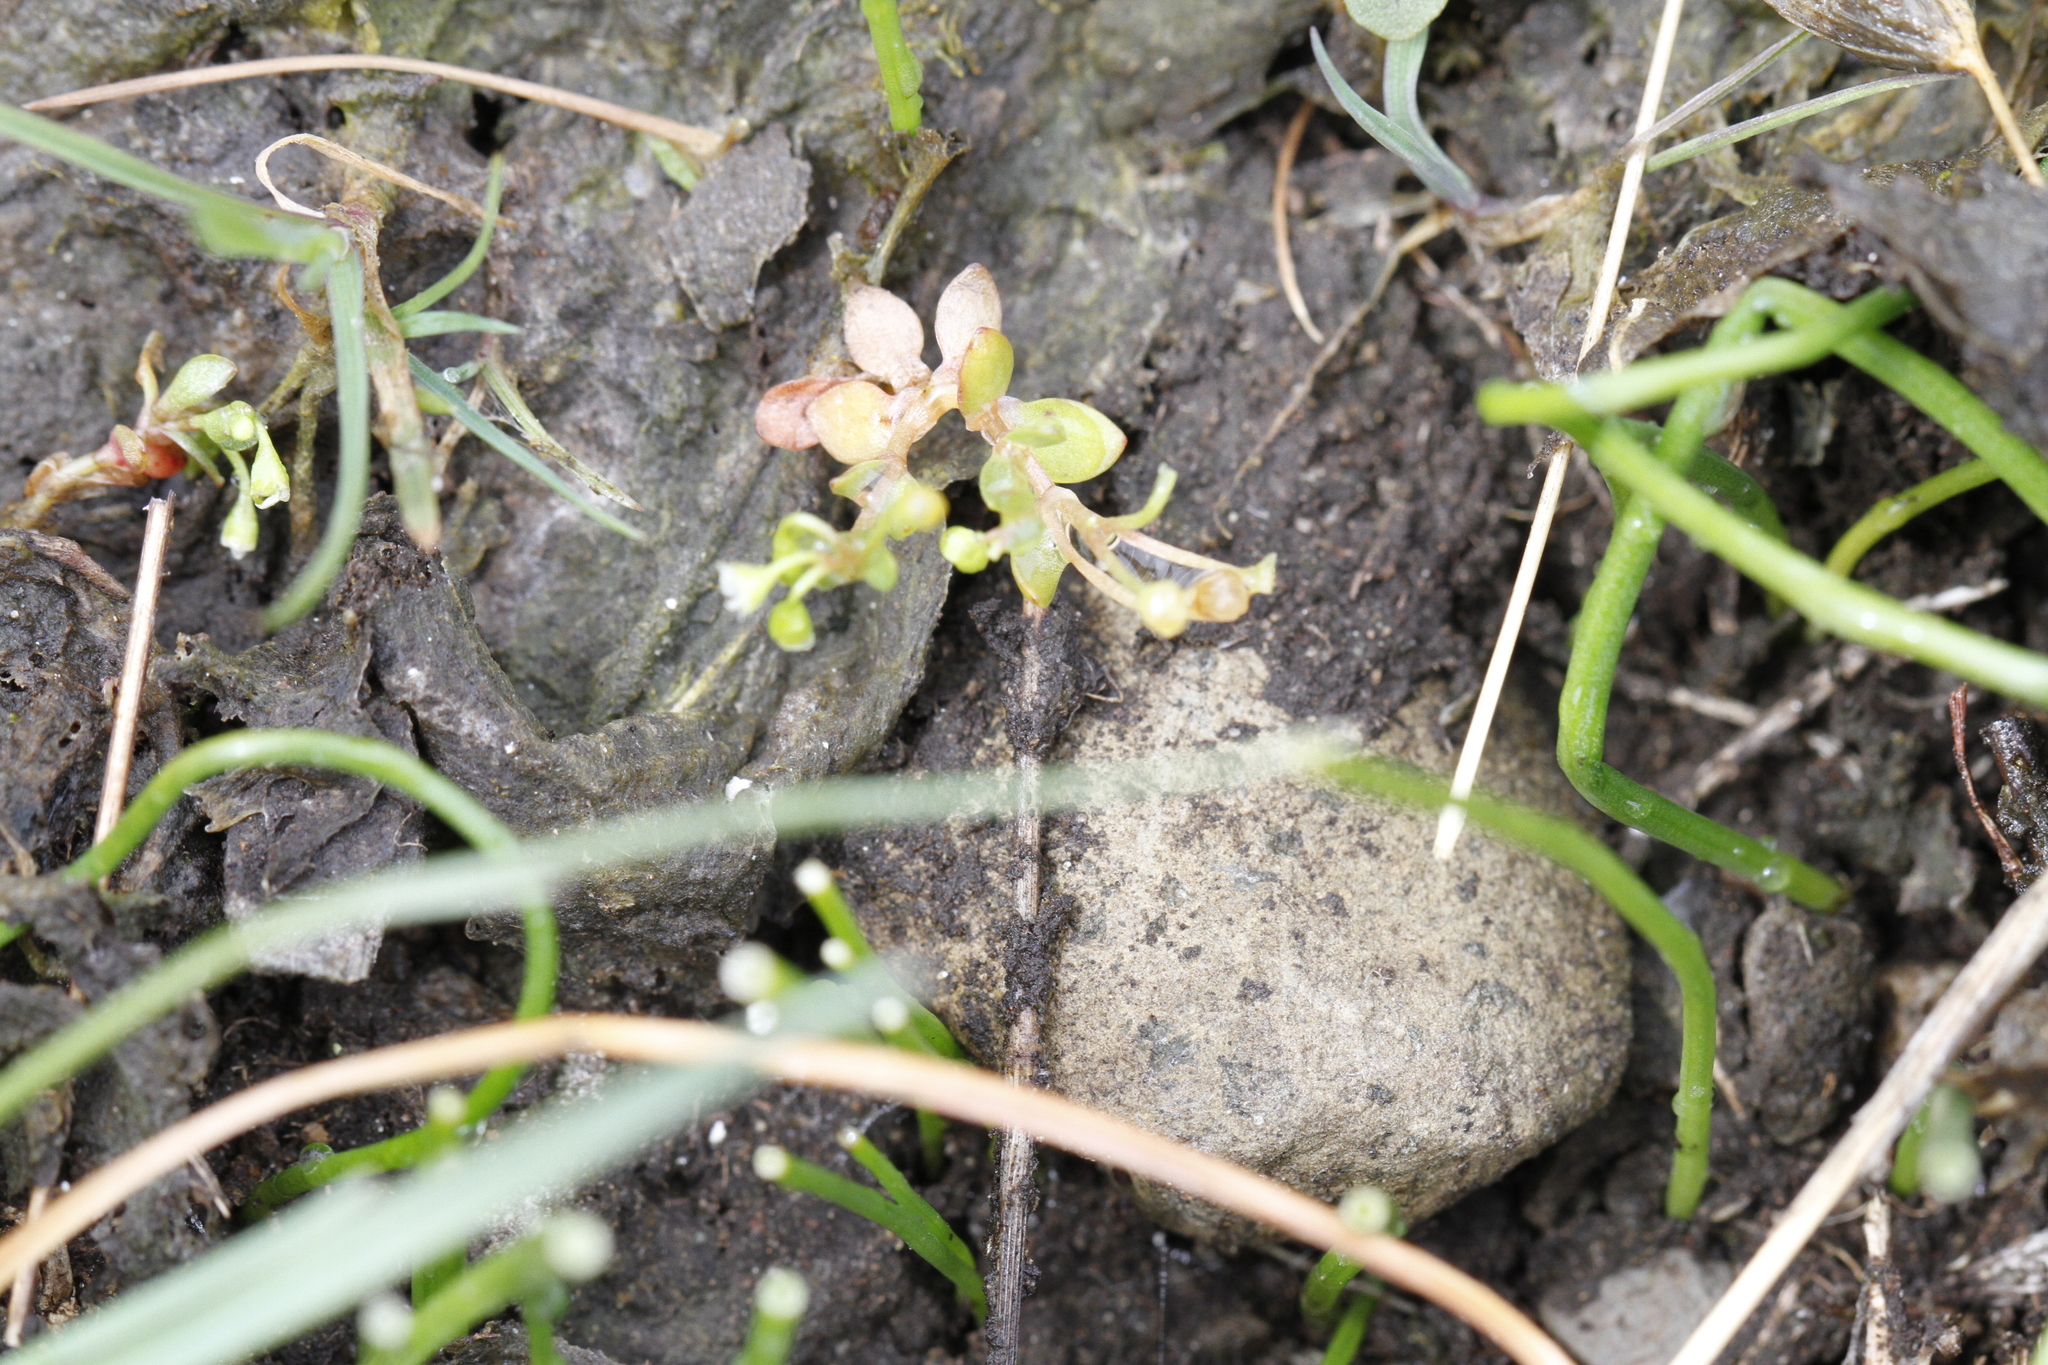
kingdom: Plantae
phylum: Tracheophyta
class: Magnoliopsida
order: Caryophyllales
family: Montiaceae
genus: Montia
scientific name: Montia fontana
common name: Blinks
